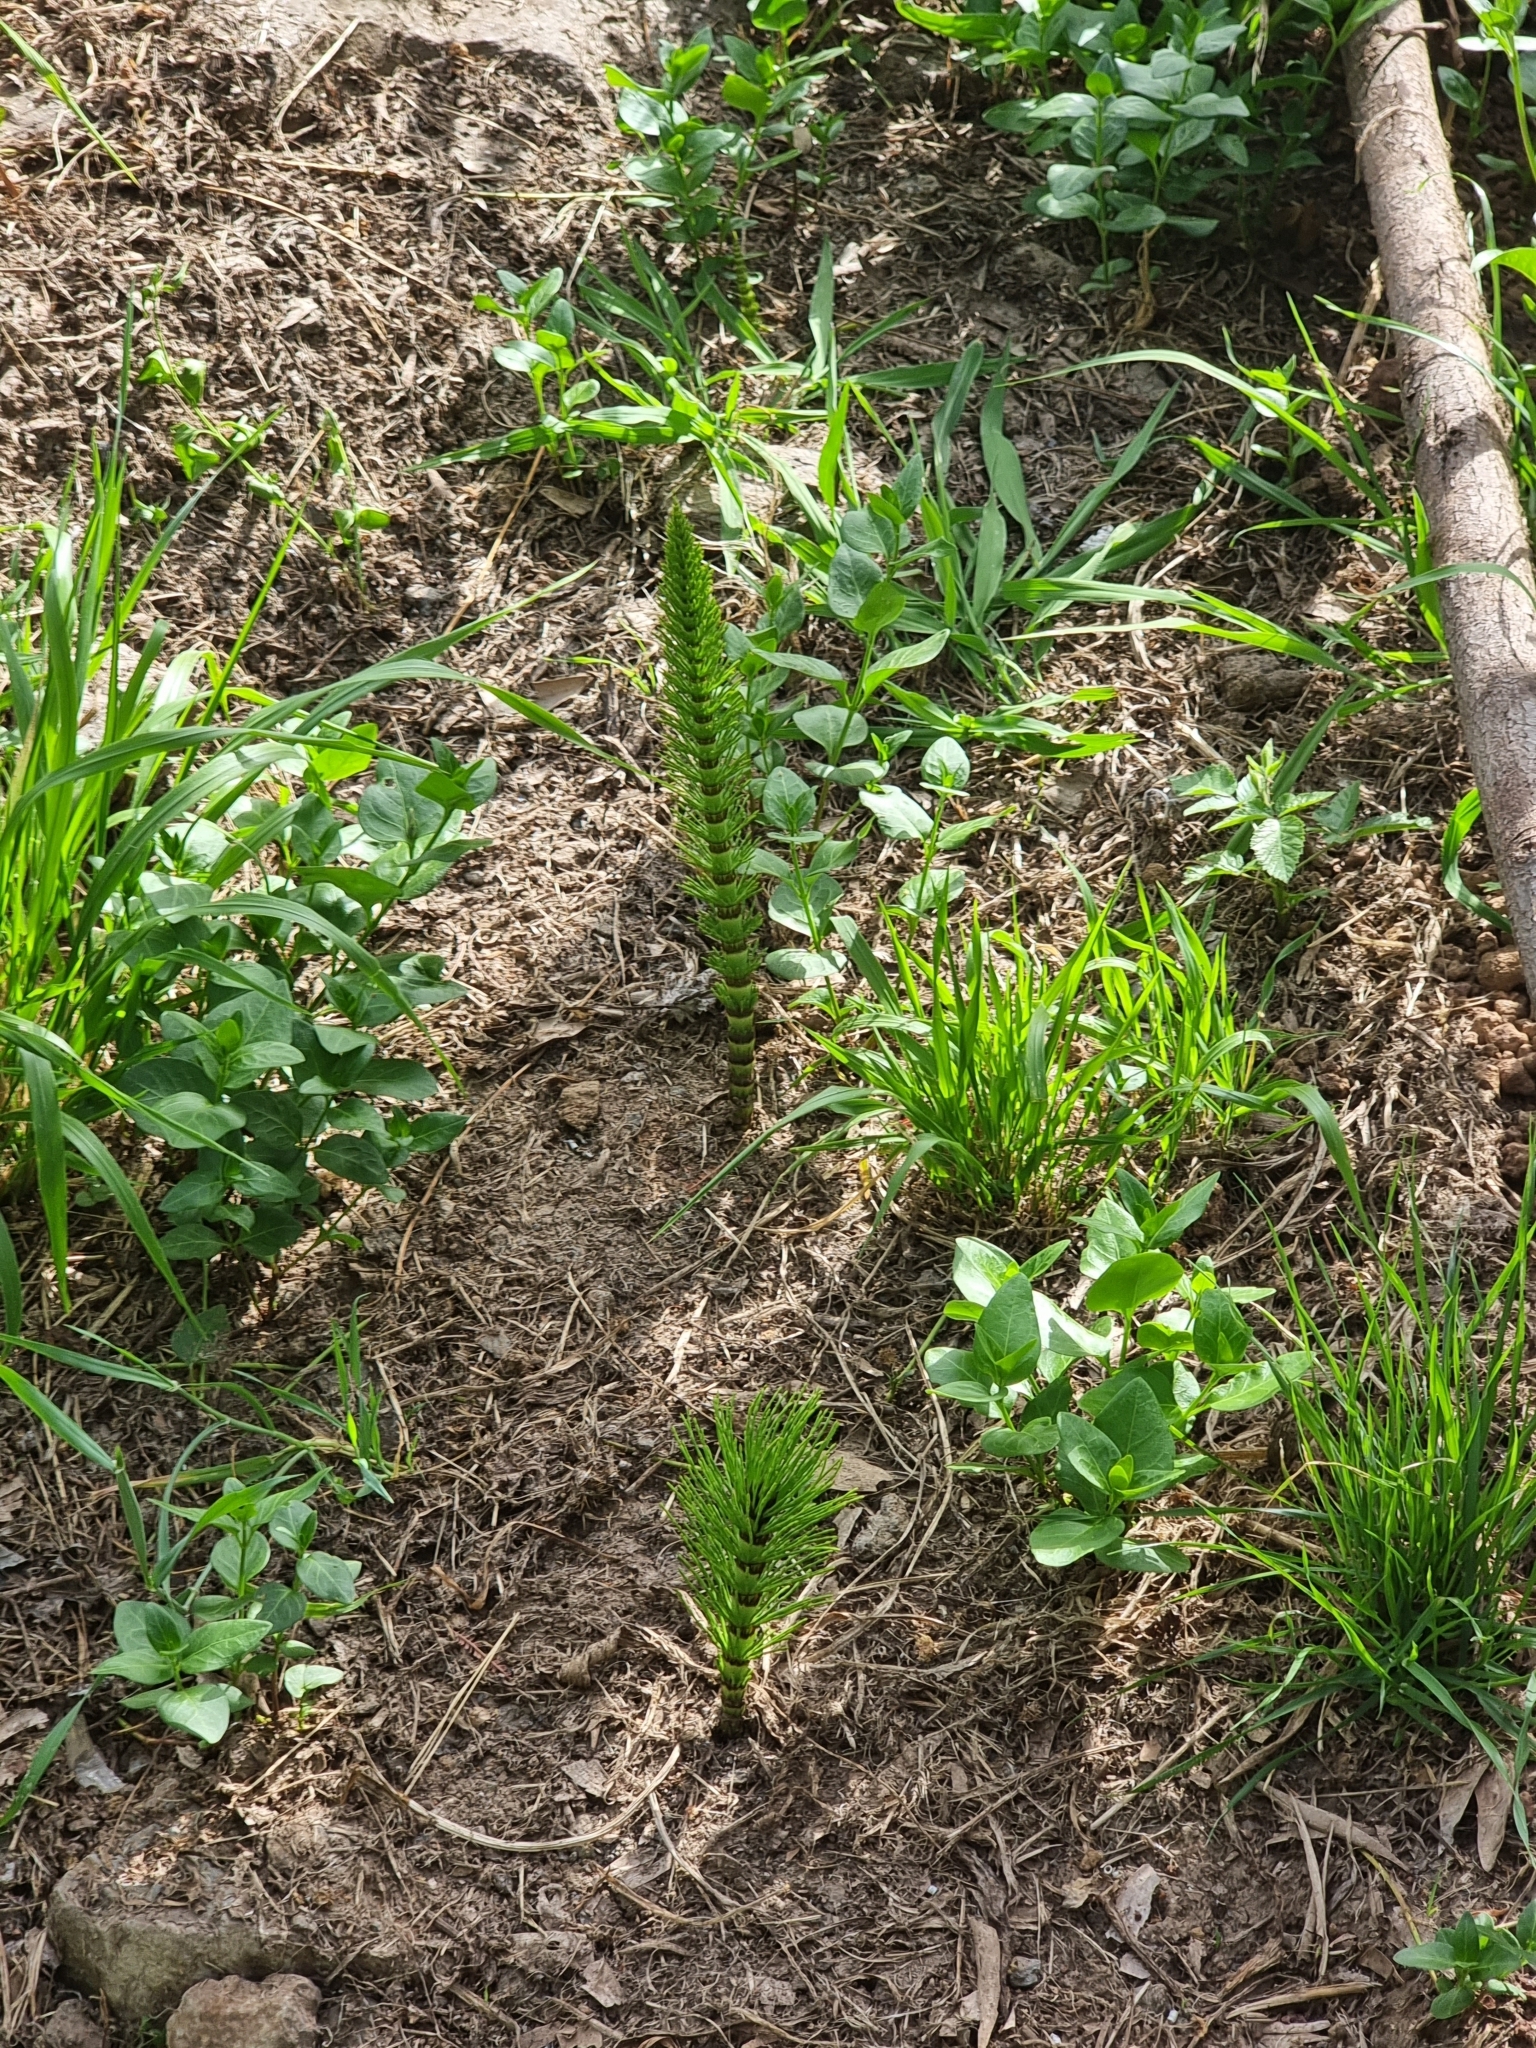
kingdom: Plantae
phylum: Tracheophyta
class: Polypodiopsida
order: Equisetales
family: Equisetaceae
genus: Equisetum
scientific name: Equisetum telmateia
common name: Great horsetail
